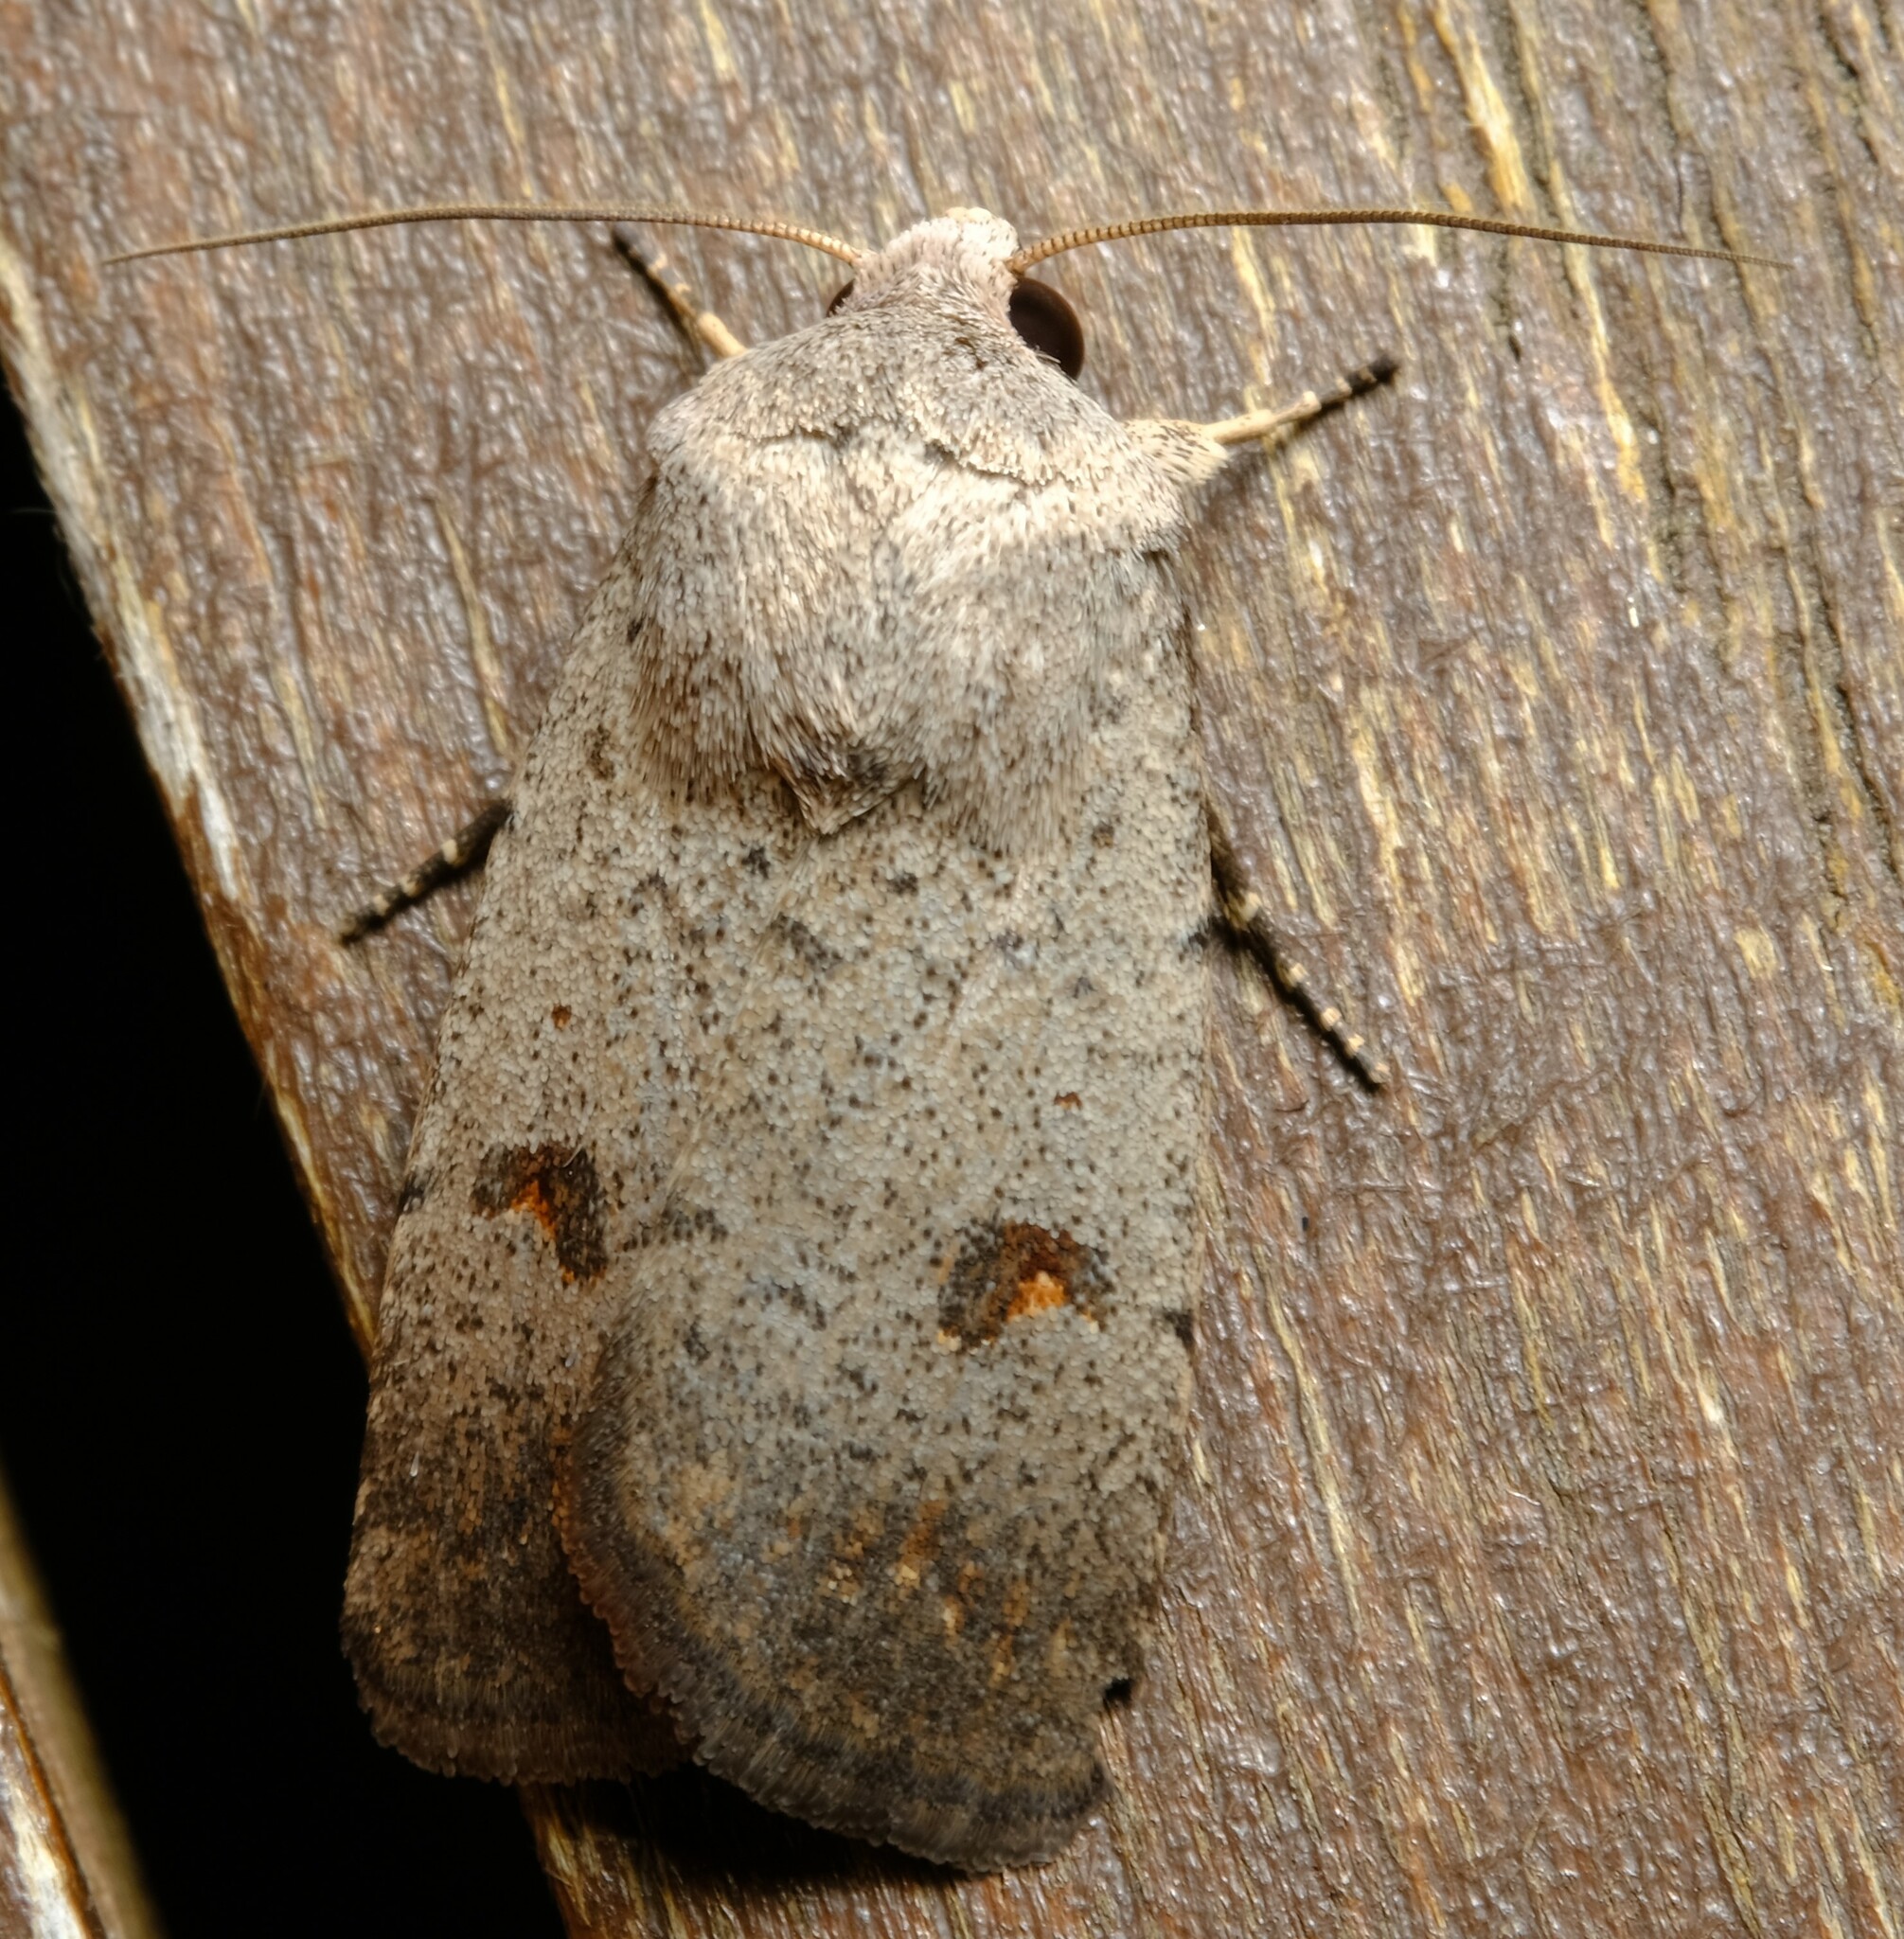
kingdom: Animalia
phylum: Arthropoda
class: Insecta
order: Lepidoptera
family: Noctuidae
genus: Proteuxoa
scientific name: Proteuxoa tibiata
